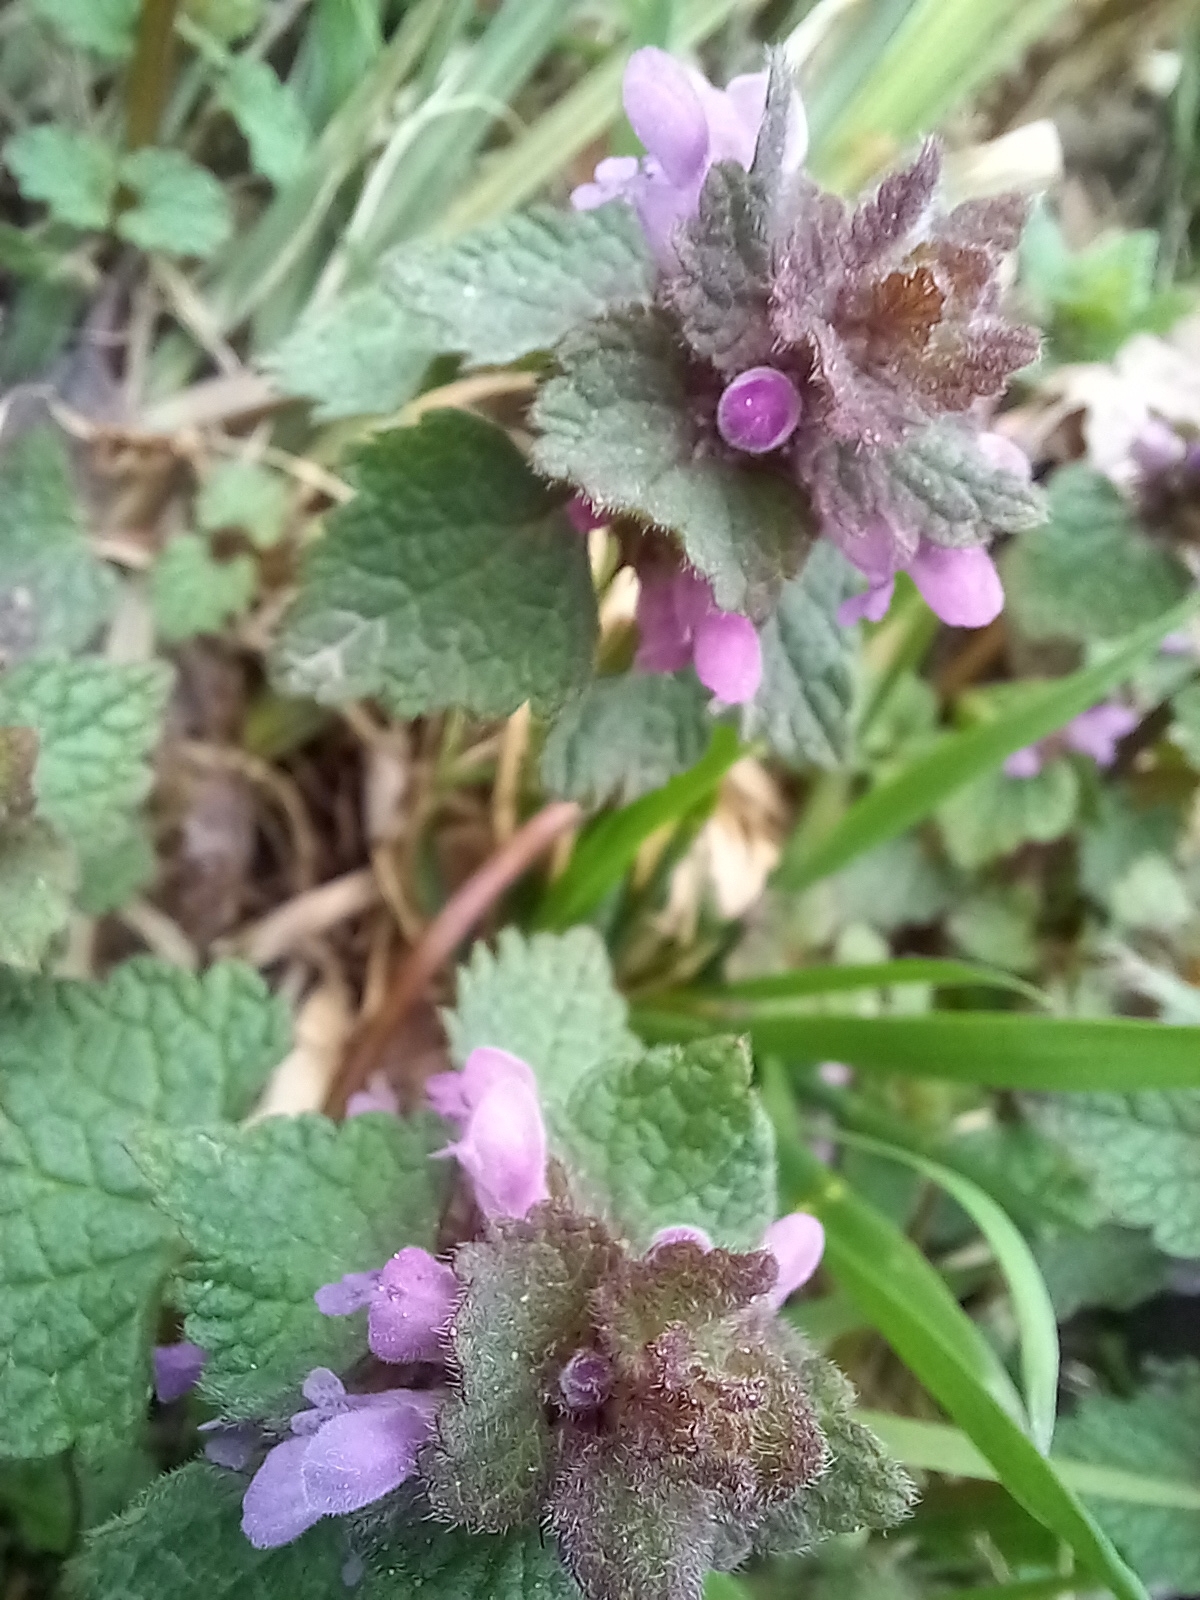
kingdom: Plantae
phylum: Tracheophyta
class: Magnoliopsida
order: Lamiales
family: Lamiaceae
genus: Lamium
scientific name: Lamium purpureum
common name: Red dead-nettle
